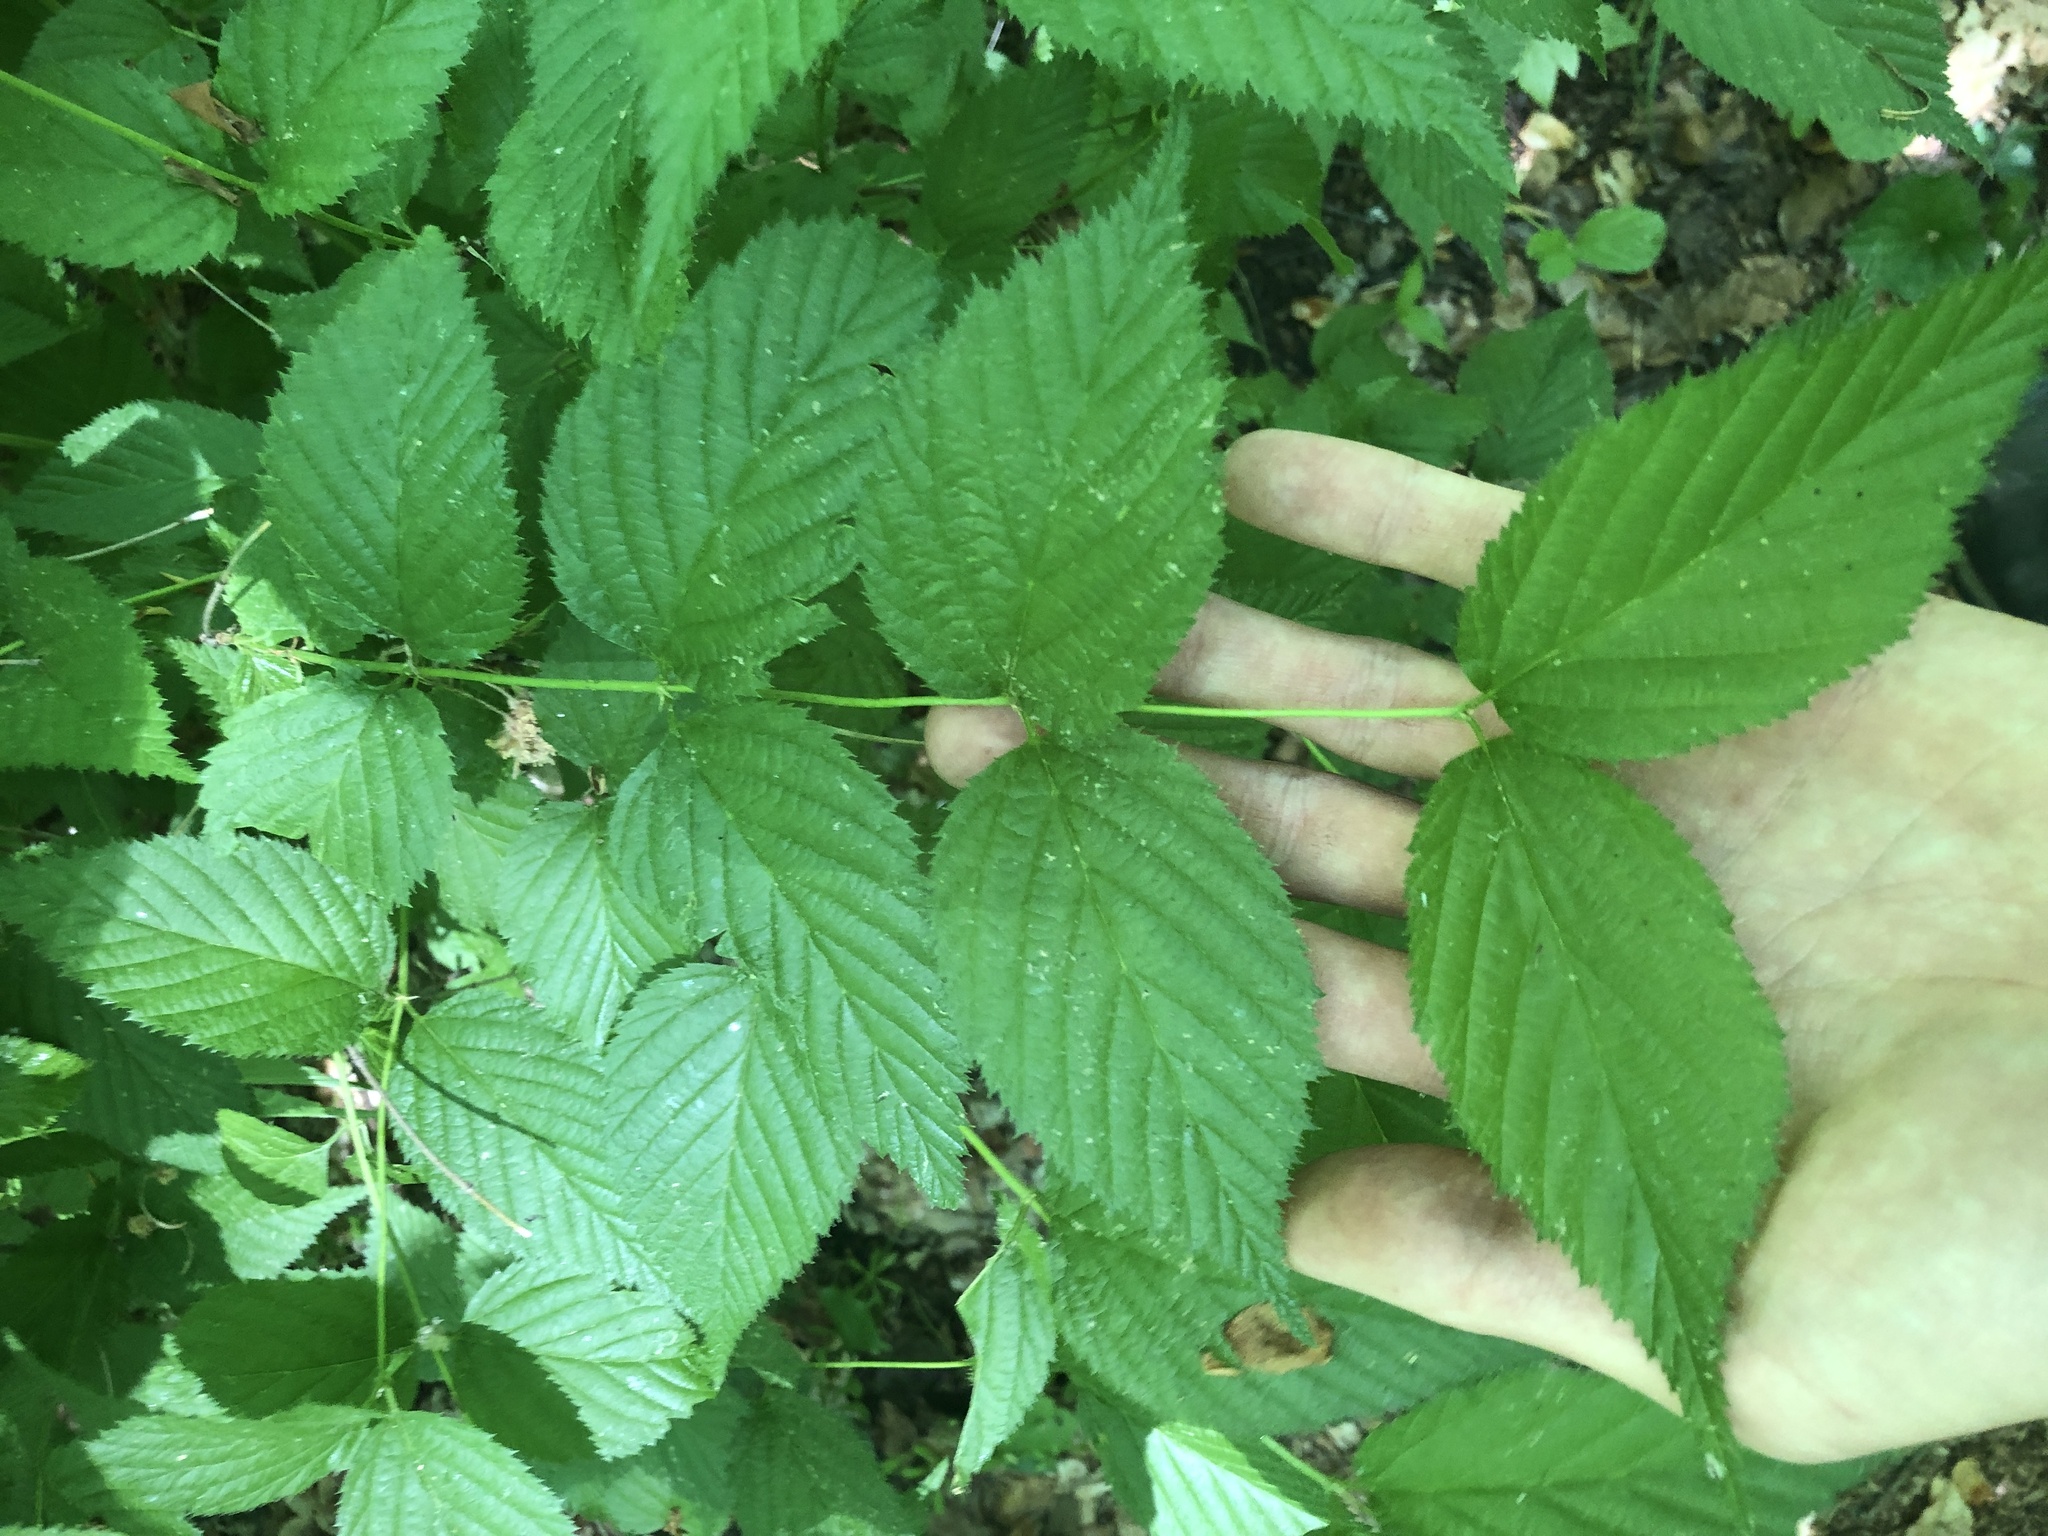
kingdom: Plantae
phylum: Tracheophyta
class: Magnoliopsida
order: Rosales
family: Rosaceae
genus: Rhodotypos
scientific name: Rhodotypos scandens
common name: Jetbead
